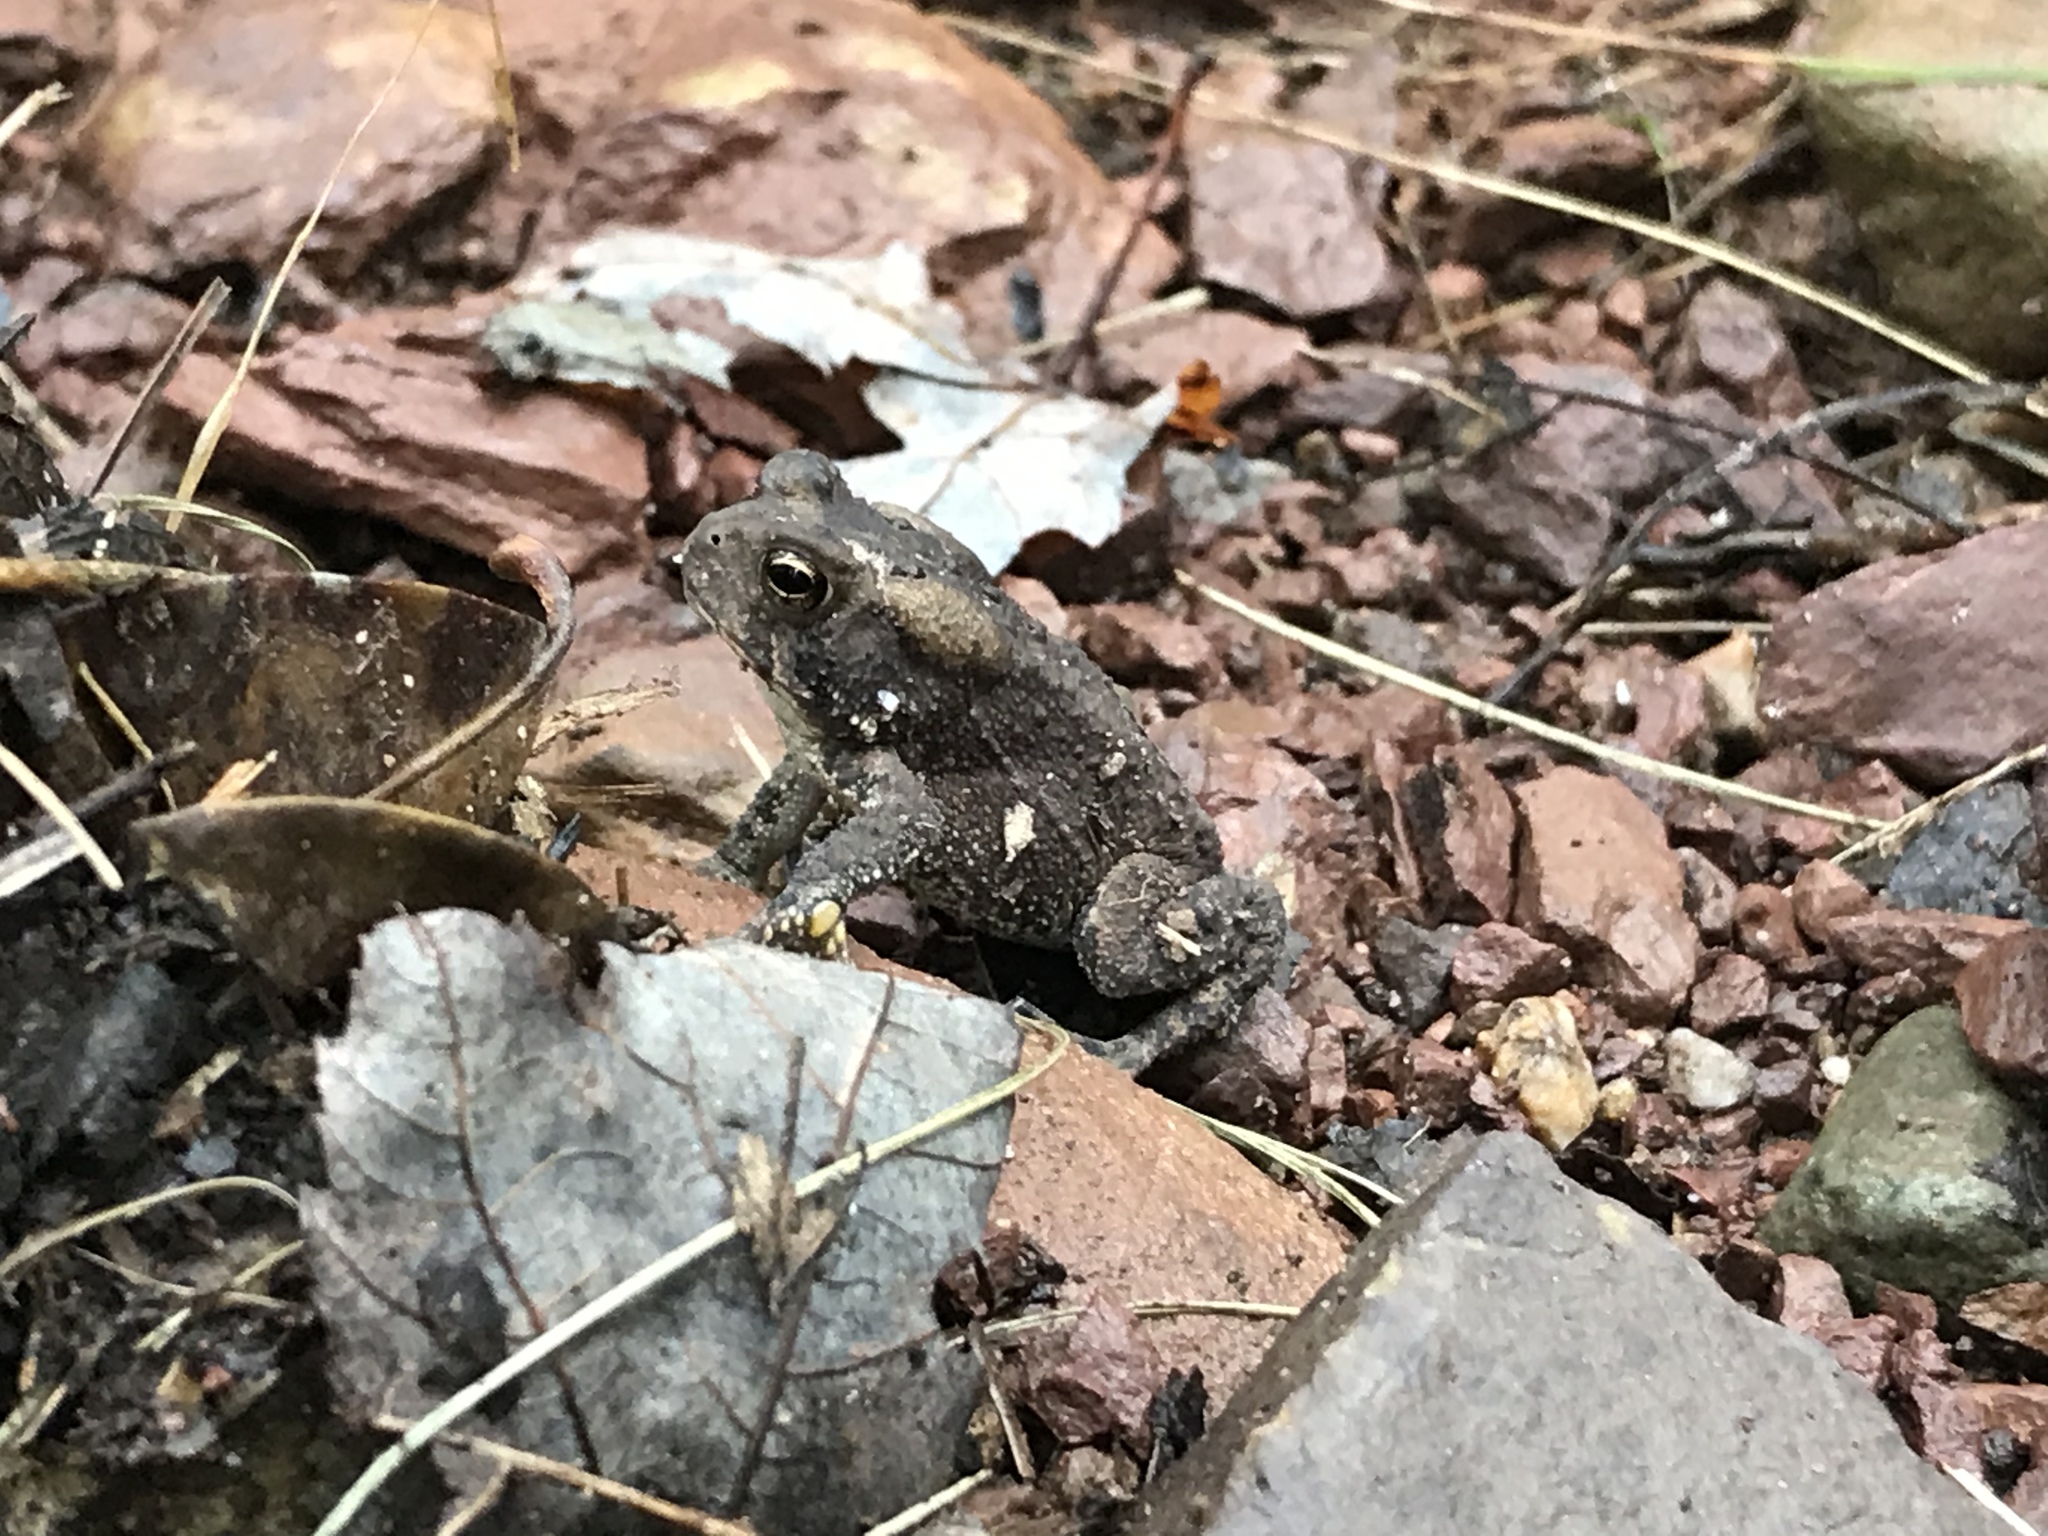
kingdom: Animalia
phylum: Chordata
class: Amphibia
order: Anura
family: Bufonidae
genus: Anaxyrus
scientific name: Anaxyrus americanus
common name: American toad
